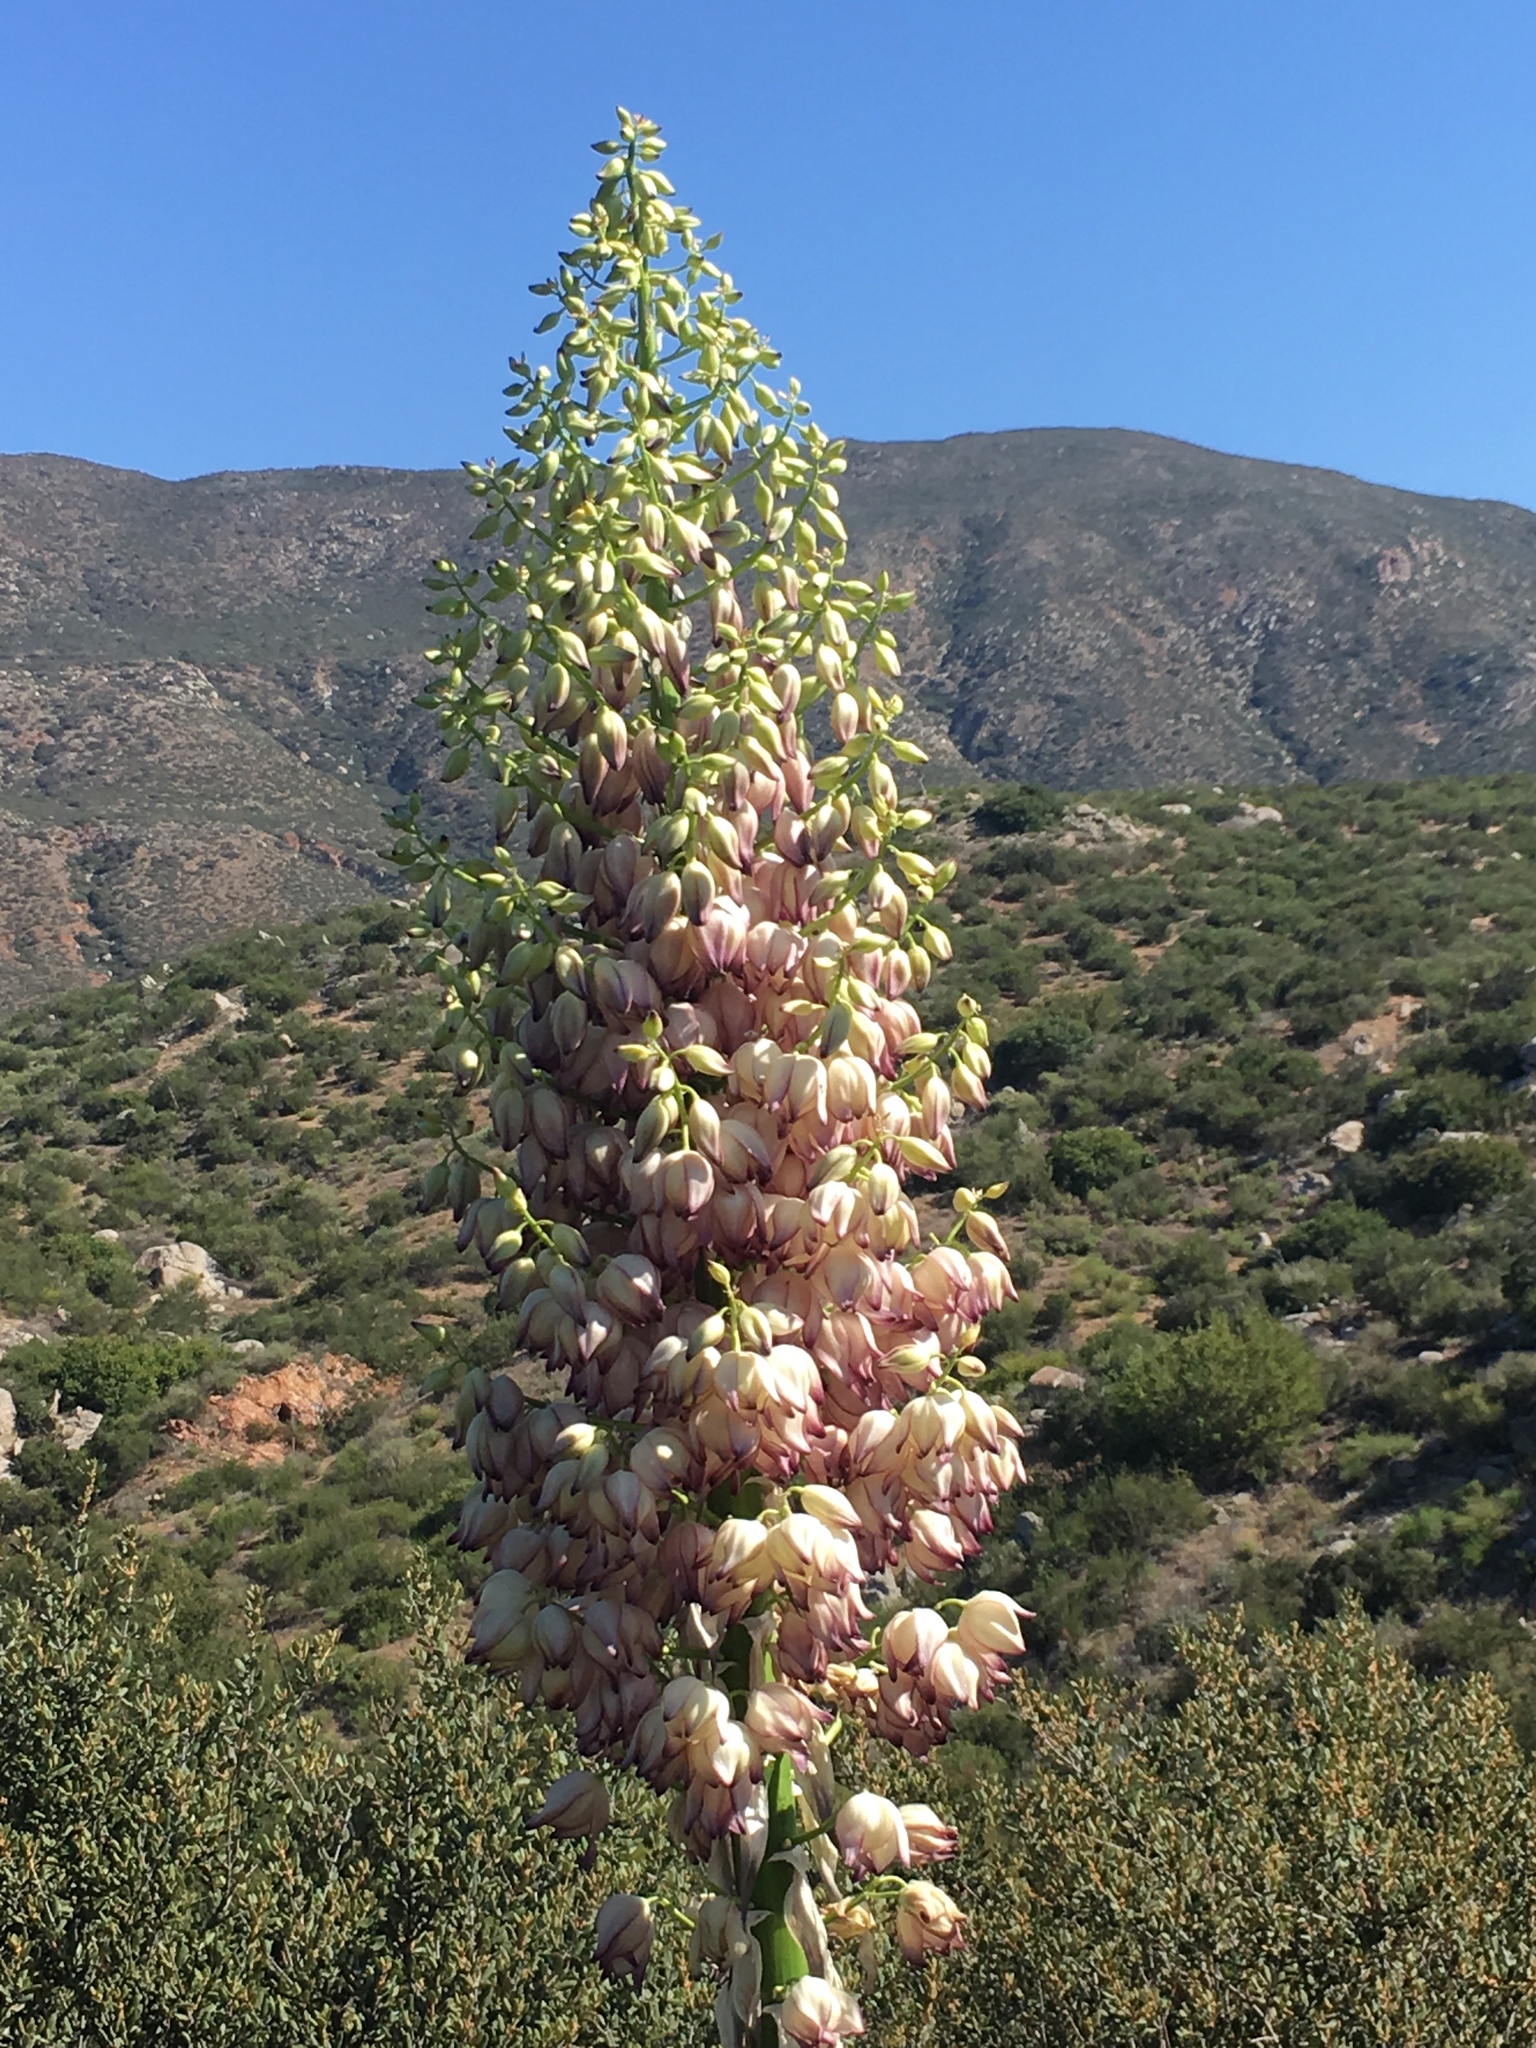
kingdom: Plantae
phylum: Tracheophyta
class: Liliopsida
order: Asparagales
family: Asparagaceae
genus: Hesperoyucca
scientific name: Hesperoyucca whipplei
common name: Our lord's-candle
